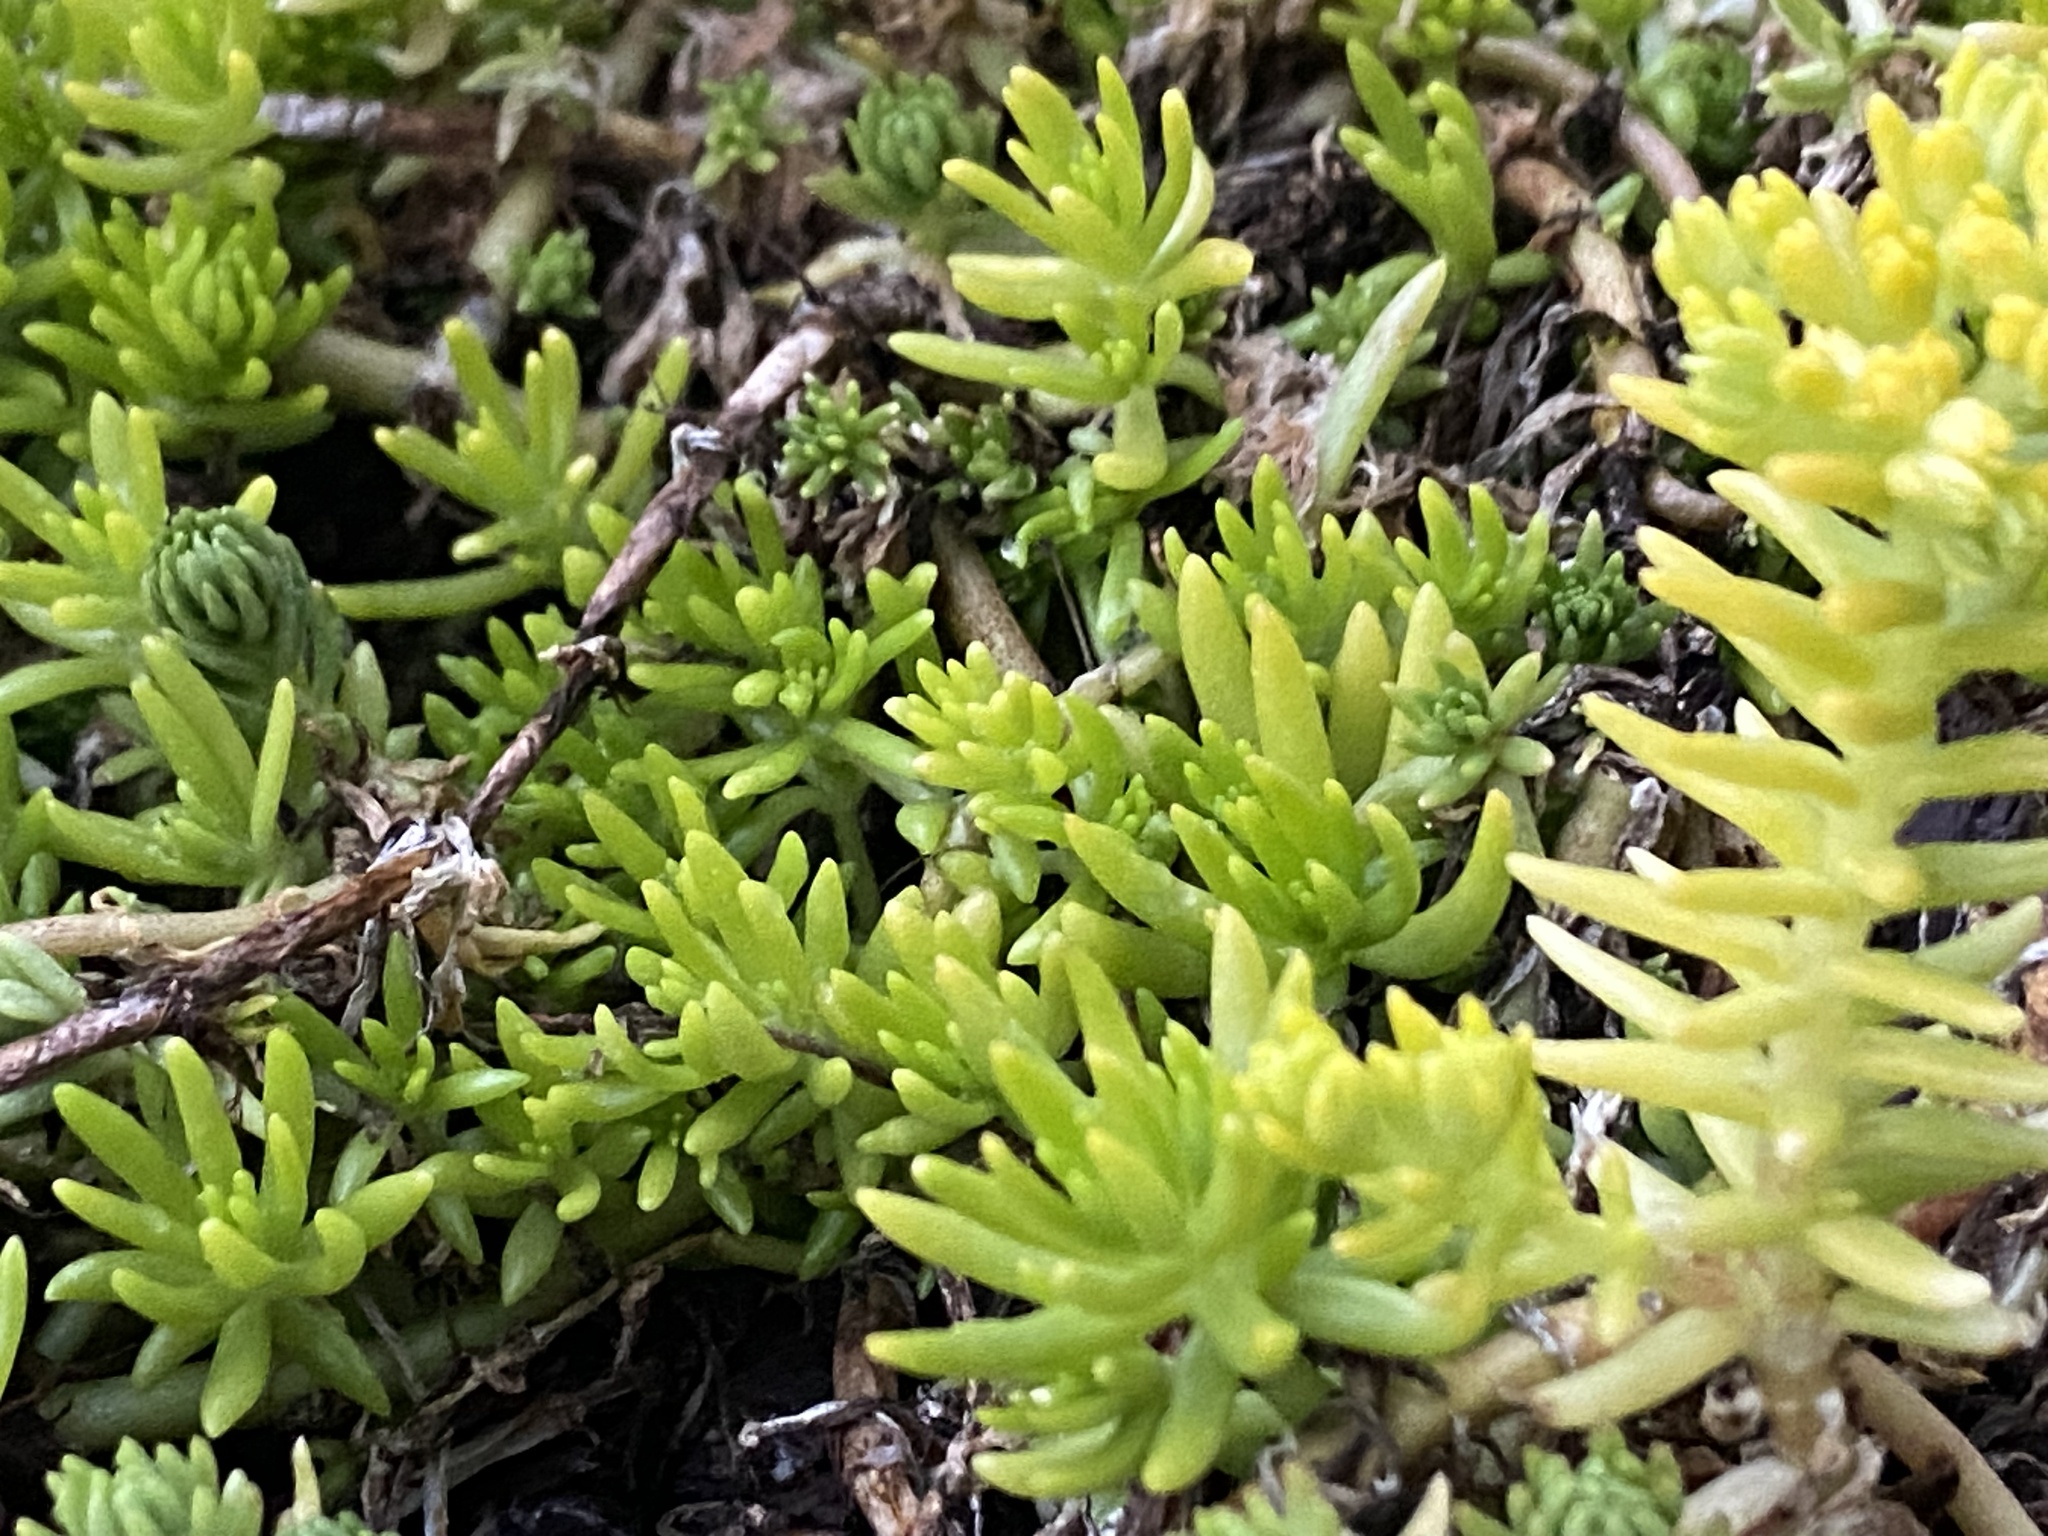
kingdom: Plantae
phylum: Tracheophyta
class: Magnoliopsida
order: Saxifragales
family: Crassulaceae
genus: Sedum
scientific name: Sedum mexicanum
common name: Mexican stonecrop
